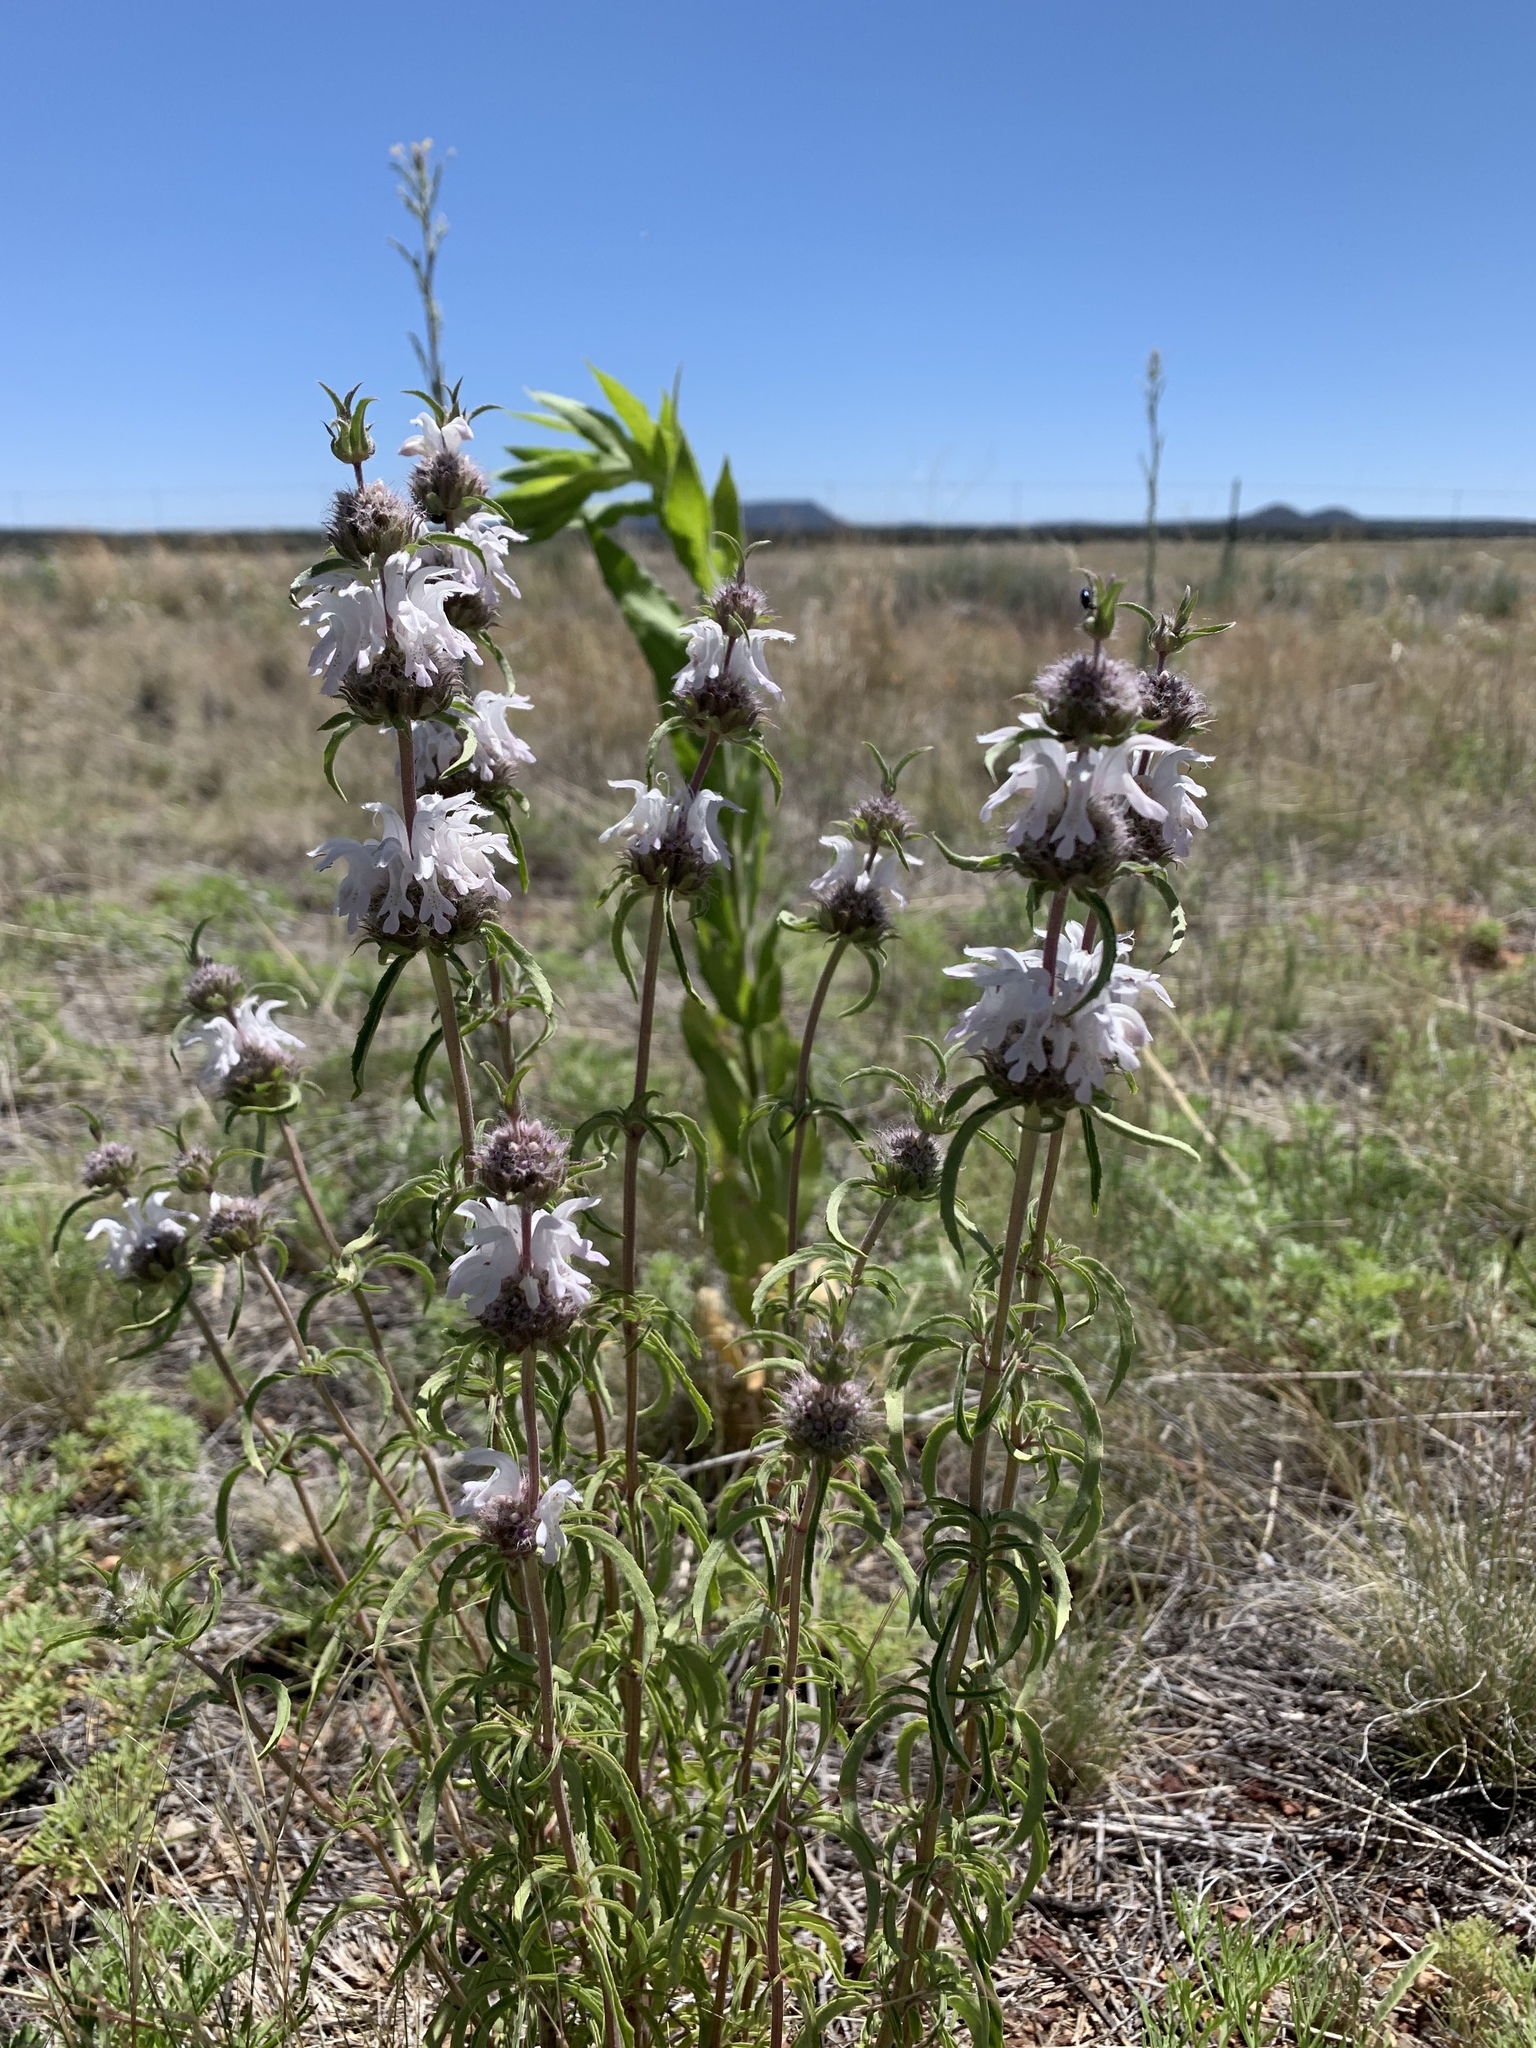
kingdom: Plantae
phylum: Tracheophyta
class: Magnoliopsida
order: Lamiales
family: Lamiaceae
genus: Monarda
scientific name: Monarda pectinata
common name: Plains beebalm
